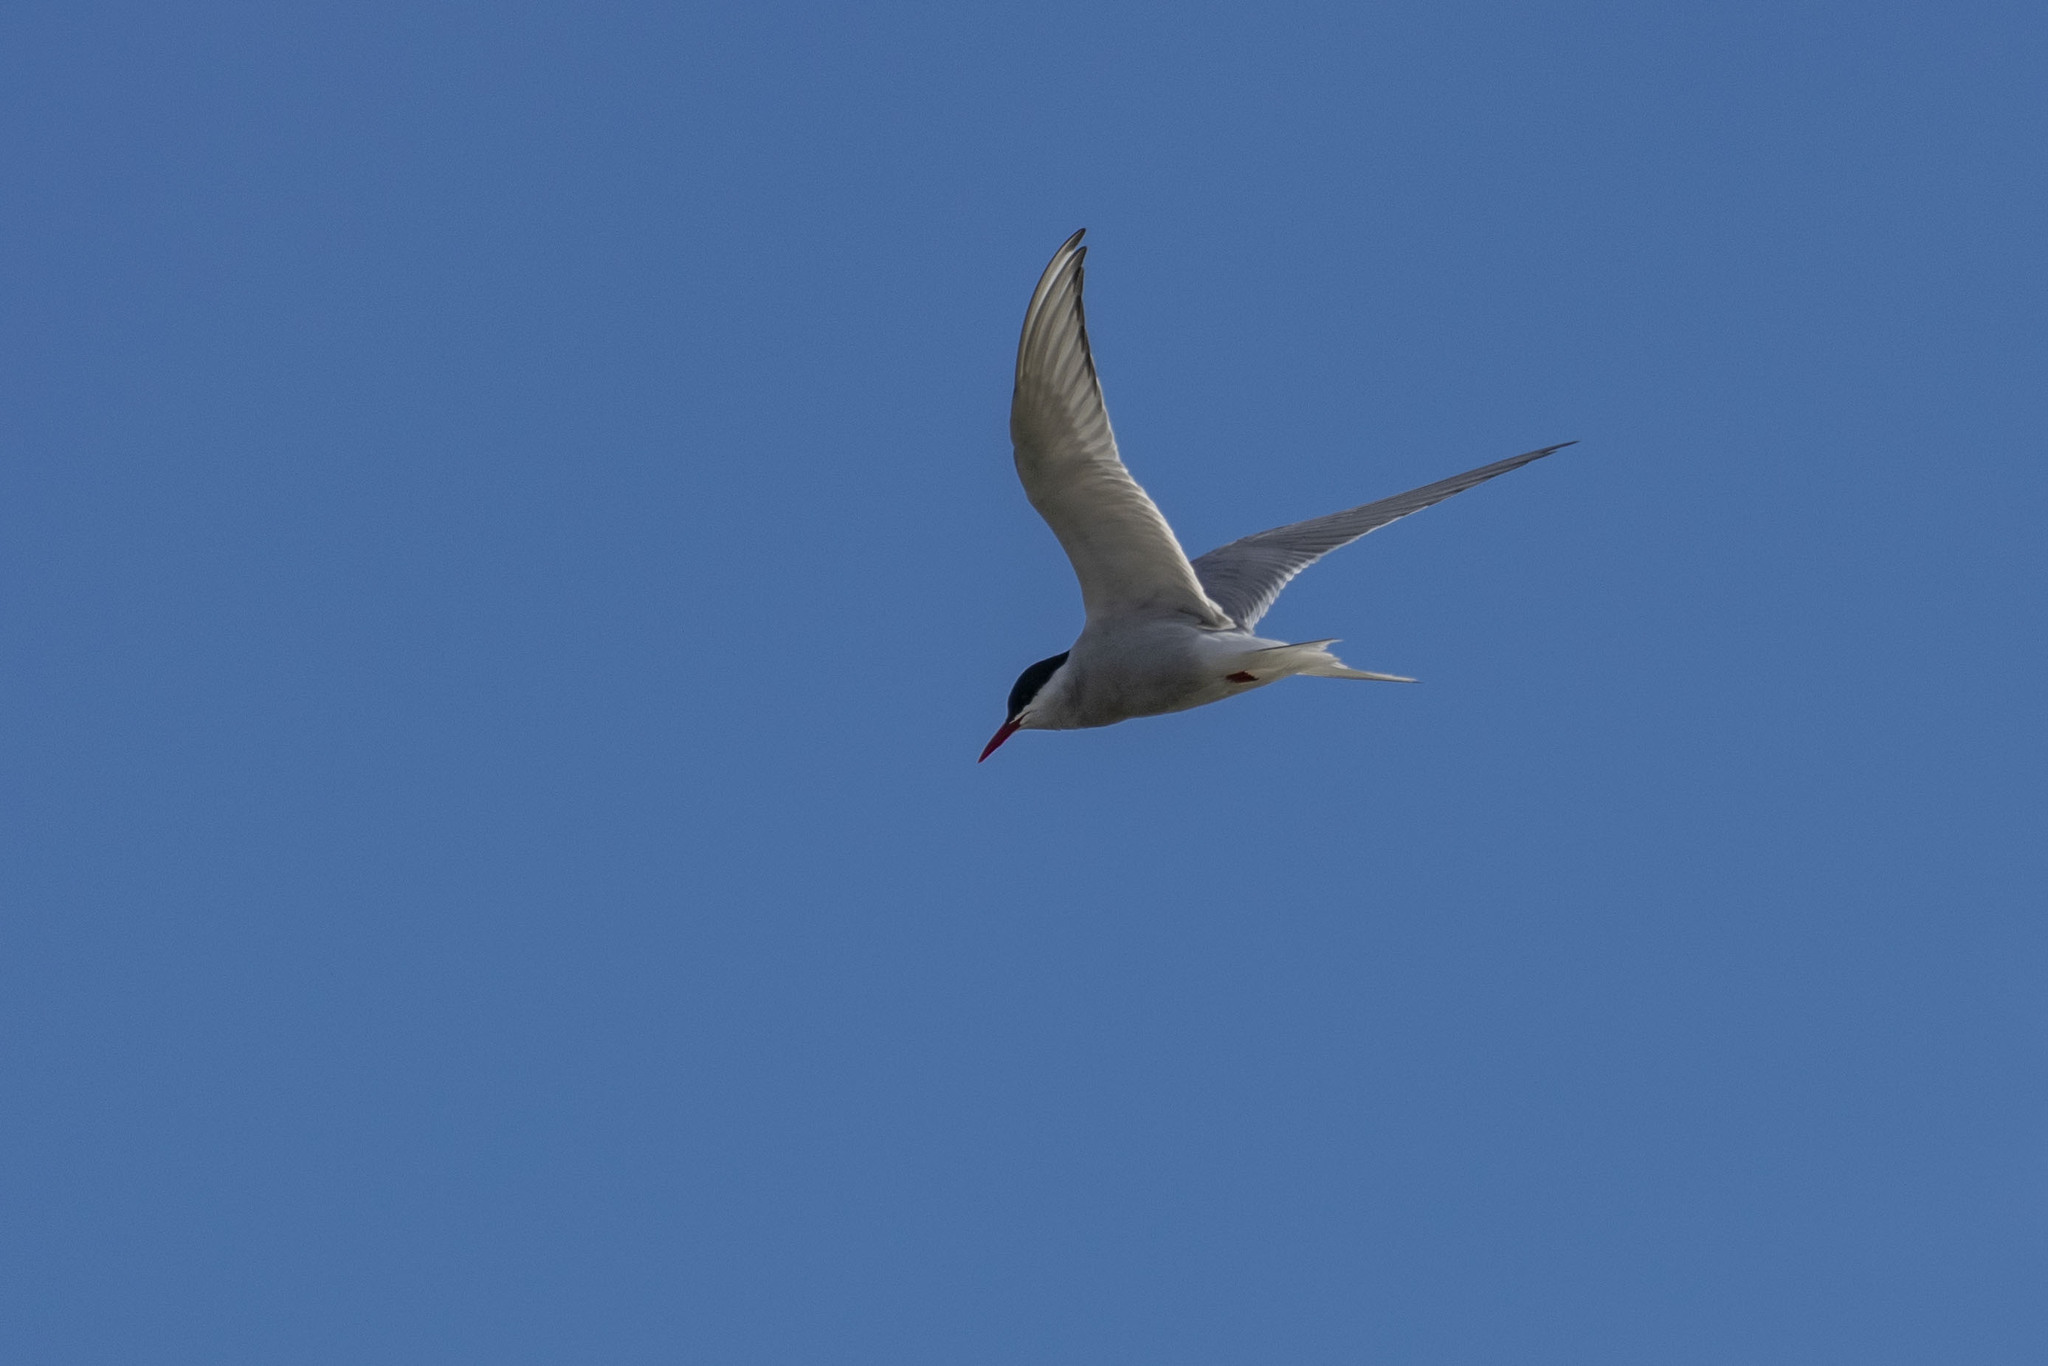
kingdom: Animalia
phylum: Chordata
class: Aves
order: Charadriiformes
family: Laridae
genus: Sterna
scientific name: Sterna paradisaea
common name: Arctic tern
